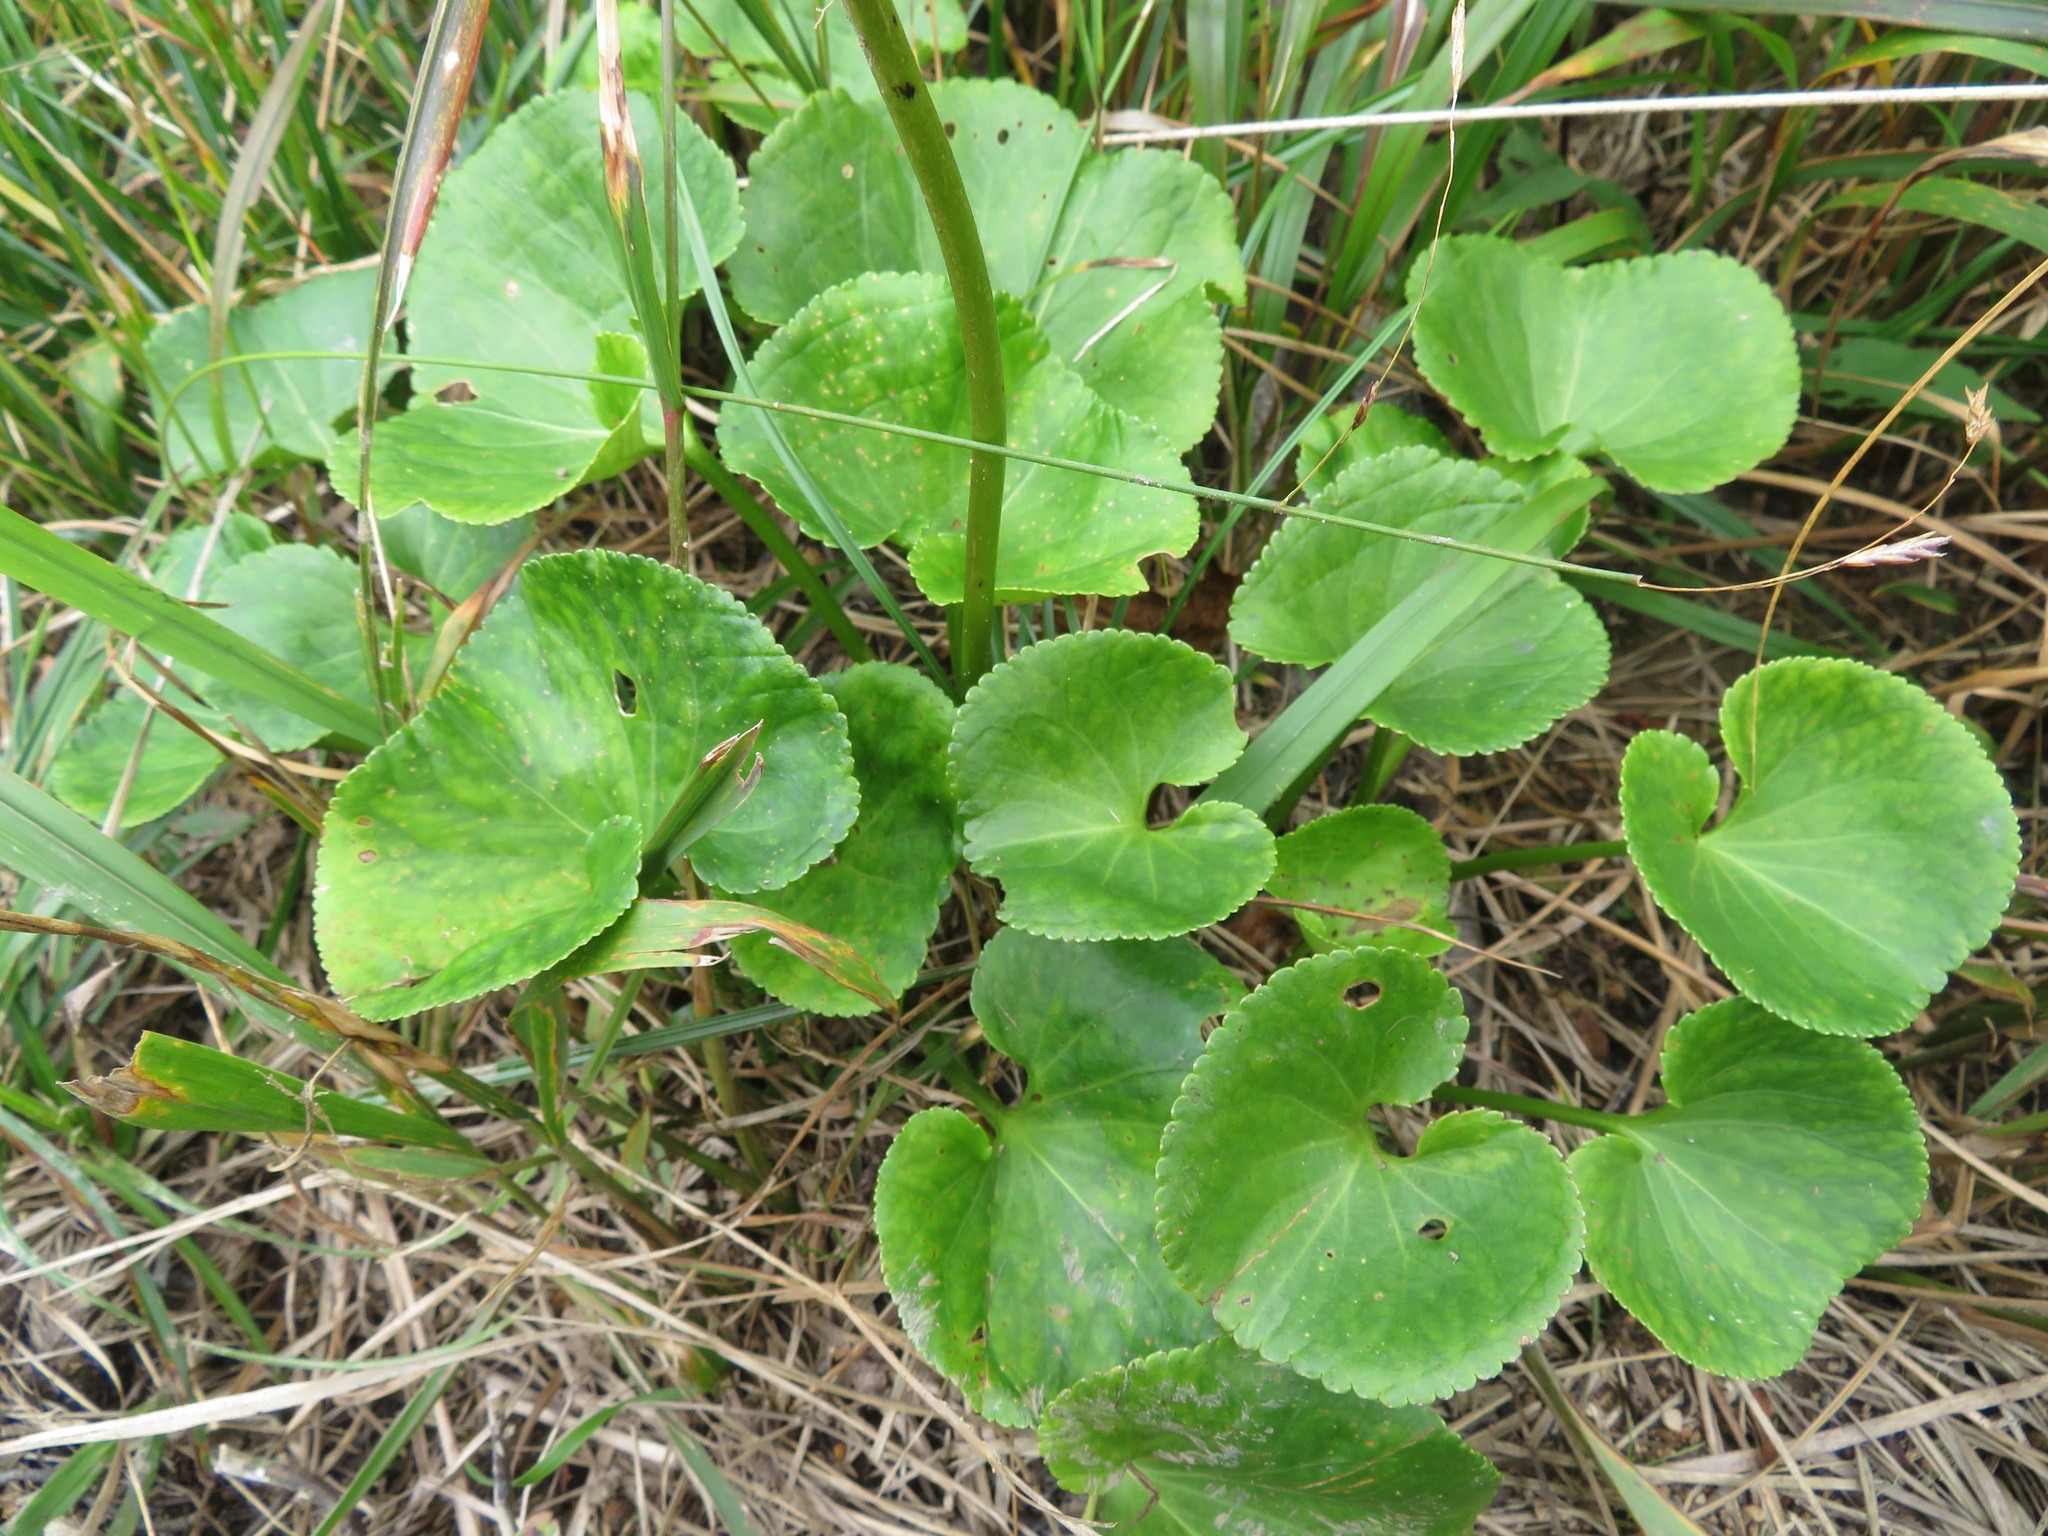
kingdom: Plantae
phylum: Tracheophyta
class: Magnoliopsida
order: Asterales
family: Menyanthaceae
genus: Nephrophyllidium
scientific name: Nephrophyllidium crista-galli
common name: Deer-cabbage
